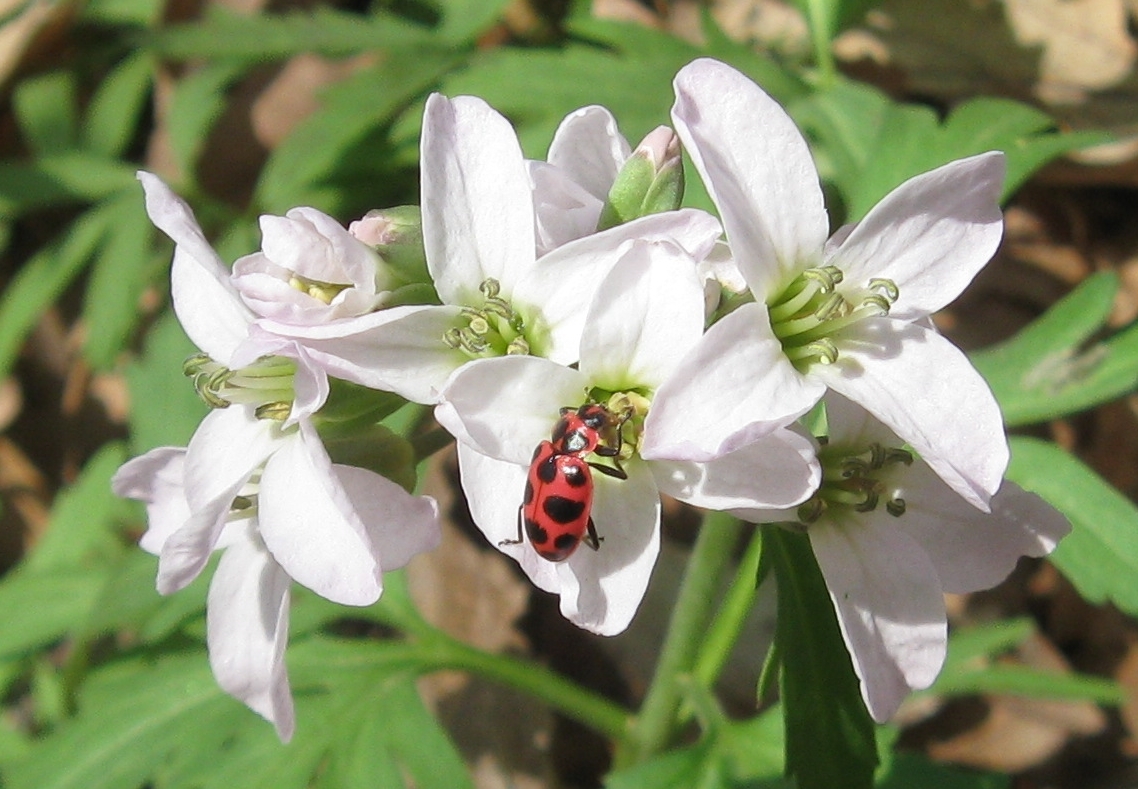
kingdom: Animalia
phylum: Arthropoda
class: Insecta
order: Coleoptera
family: Coccinellidae
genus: Coleomegilla
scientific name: Coleomegilla maculata
